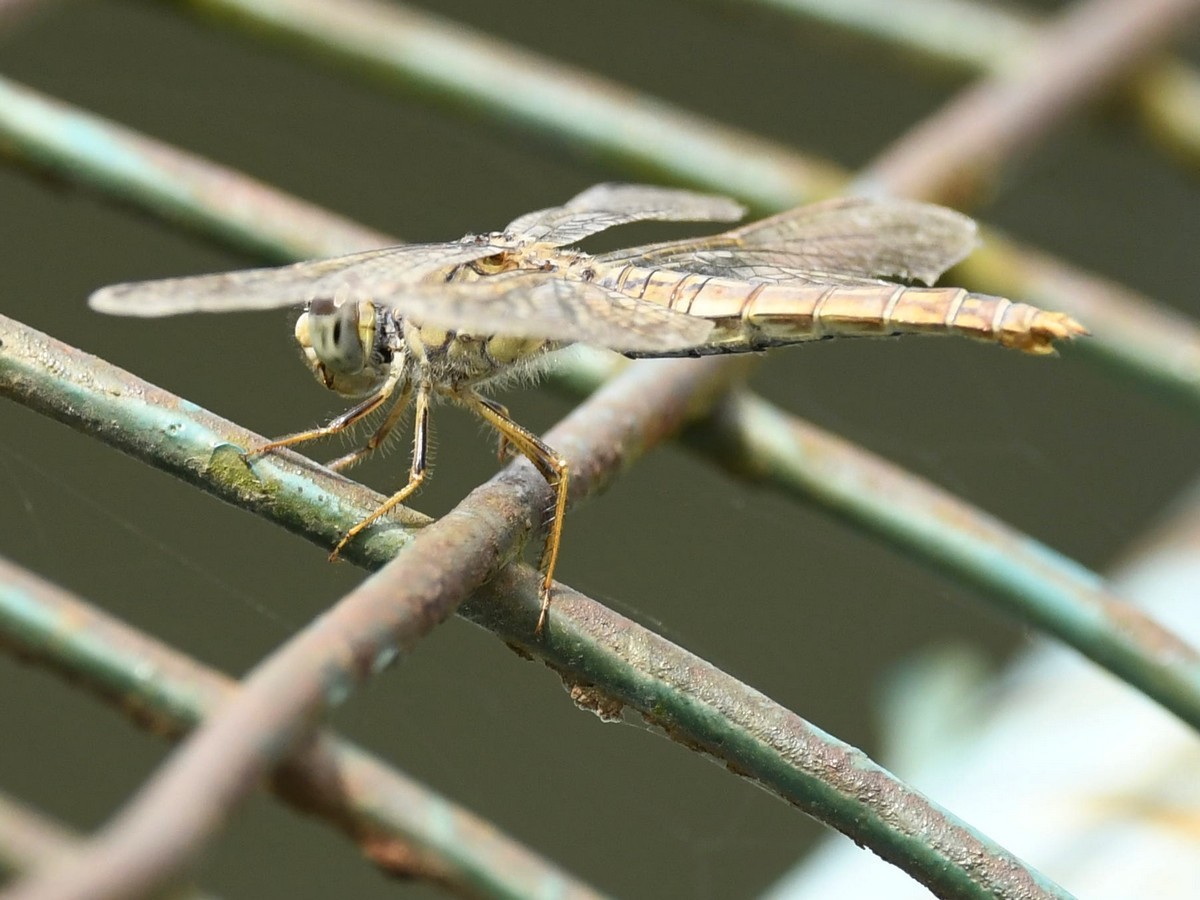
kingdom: Animalia
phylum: Arthropoda
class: Insecta
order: Odonata
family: Libellulidae
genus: Brachythemis
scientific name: Brachythemis contaminata
